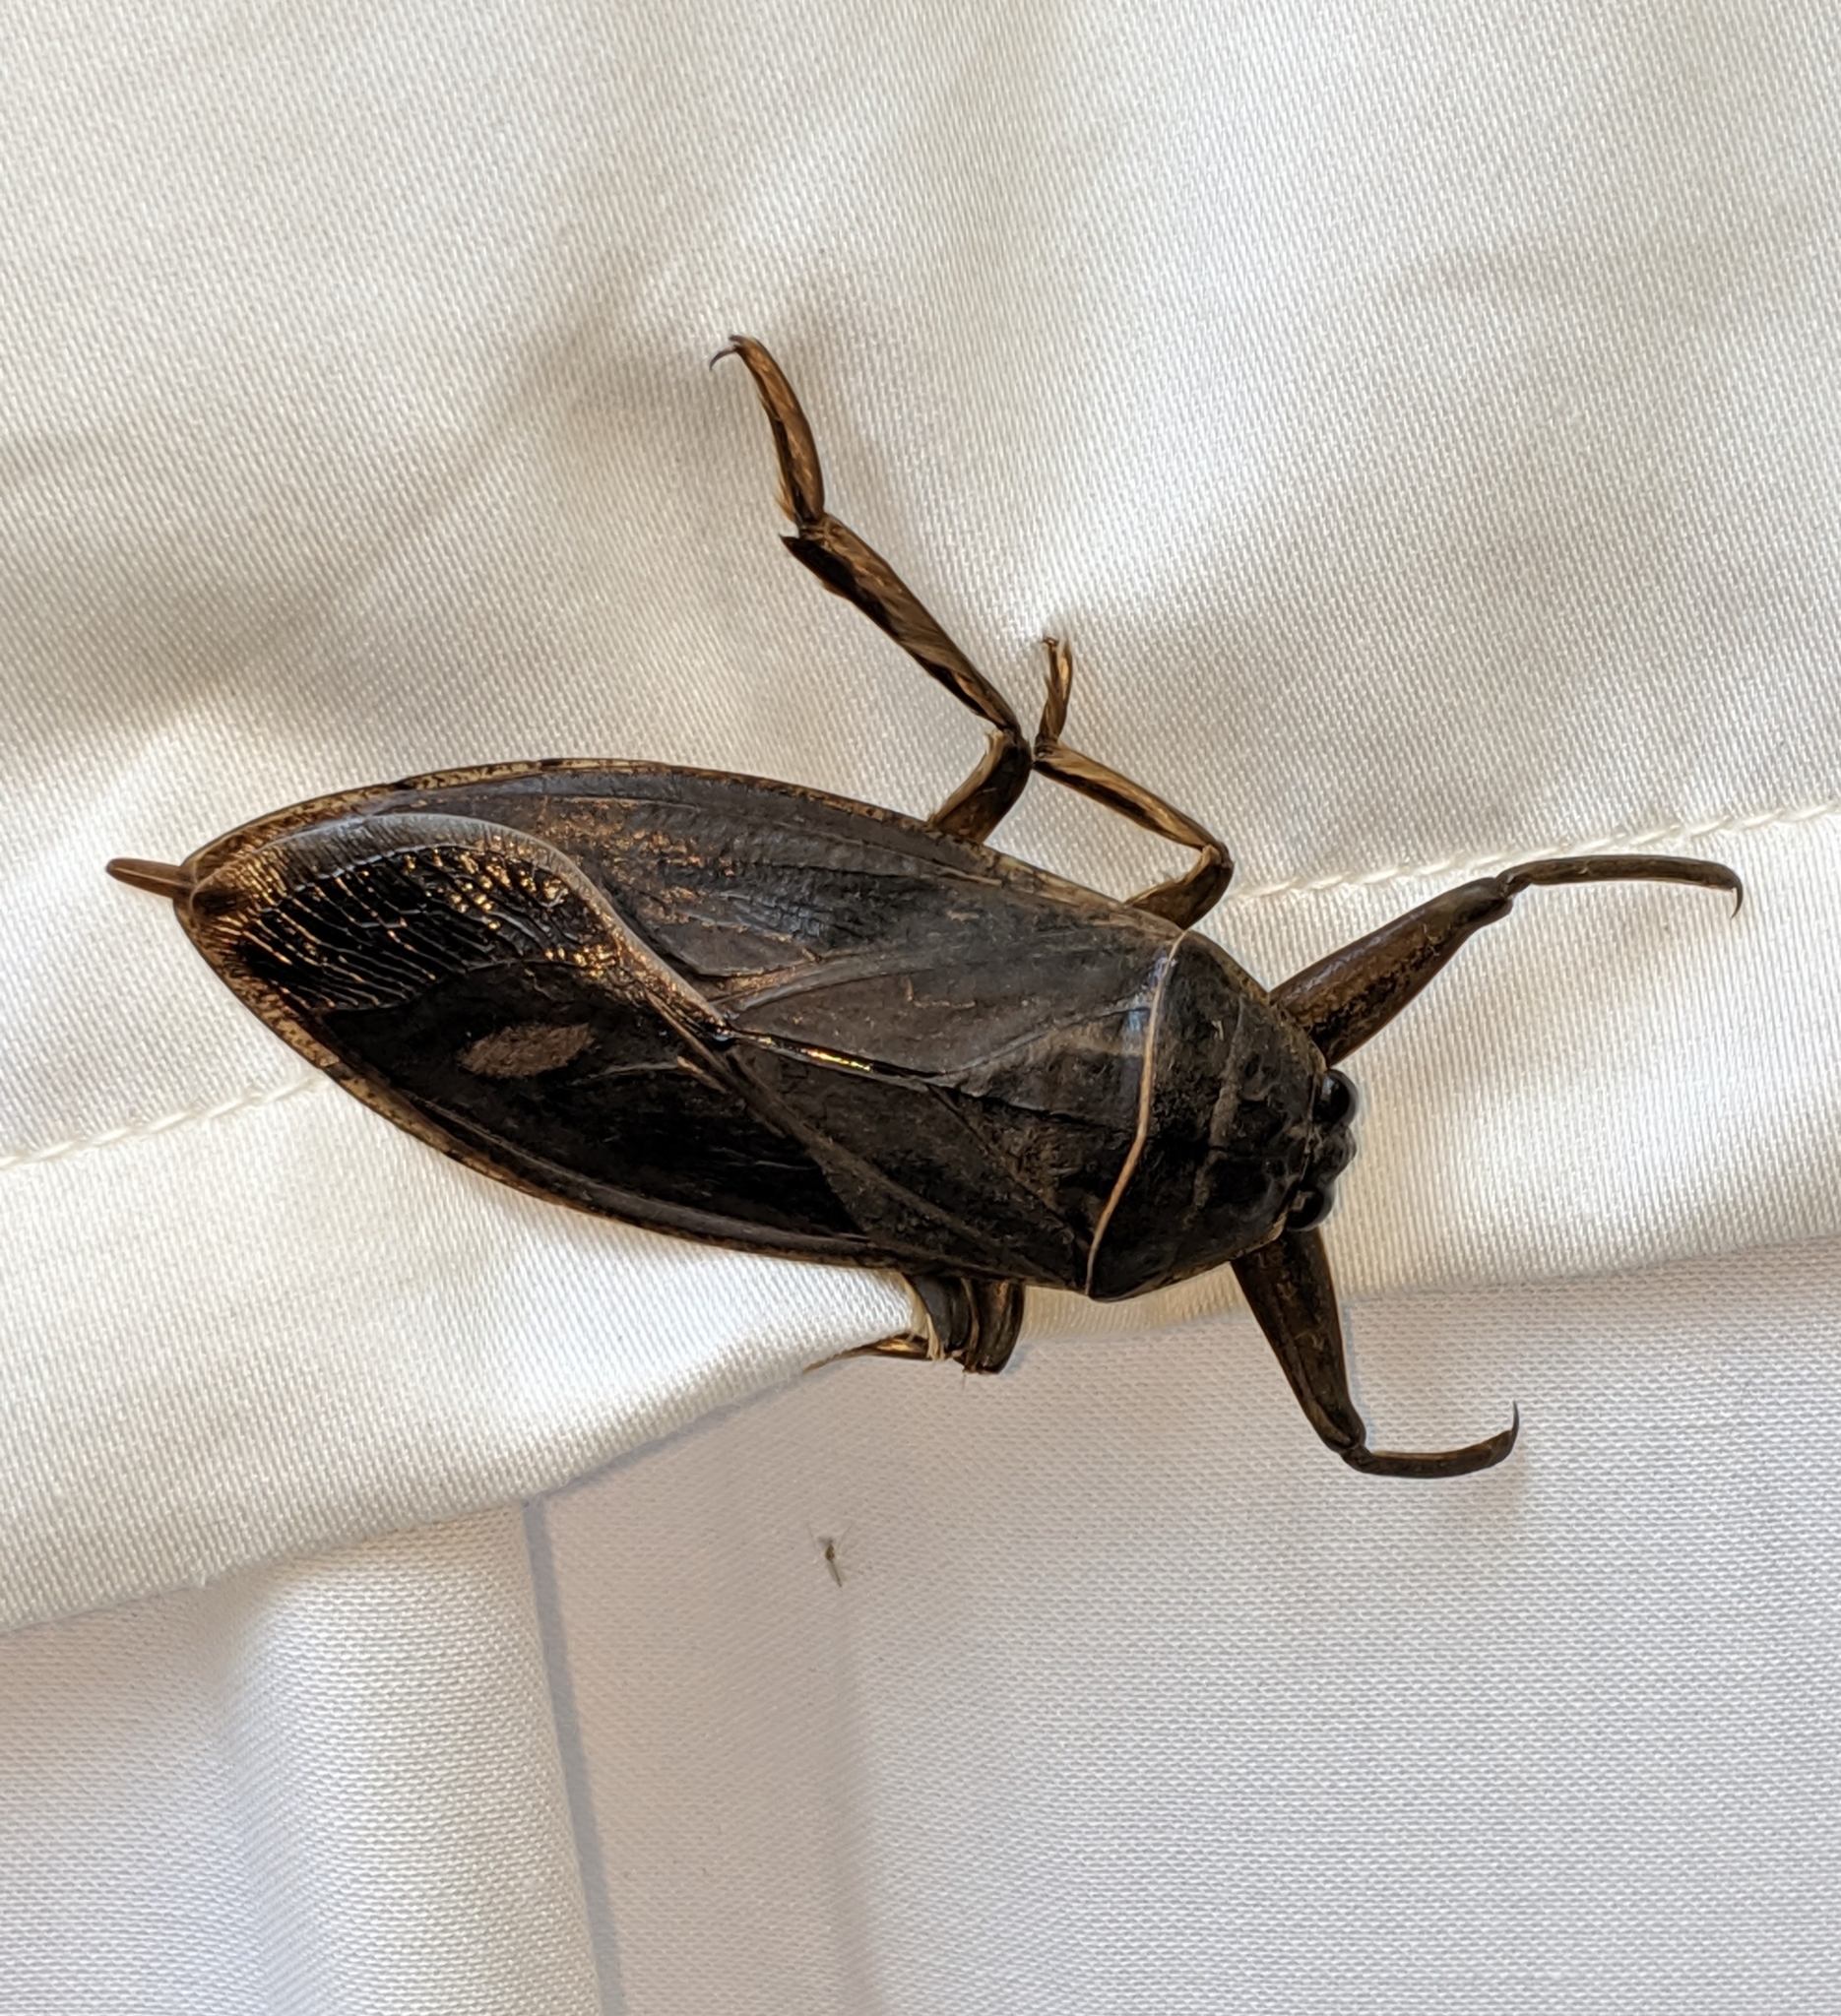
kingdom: Animalia
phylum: Arthropoda
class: Insecta
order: Hemiptera
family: Belostomatidae
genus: Lethocerus
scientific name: Lethocerus americanus
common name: Giant water bug
